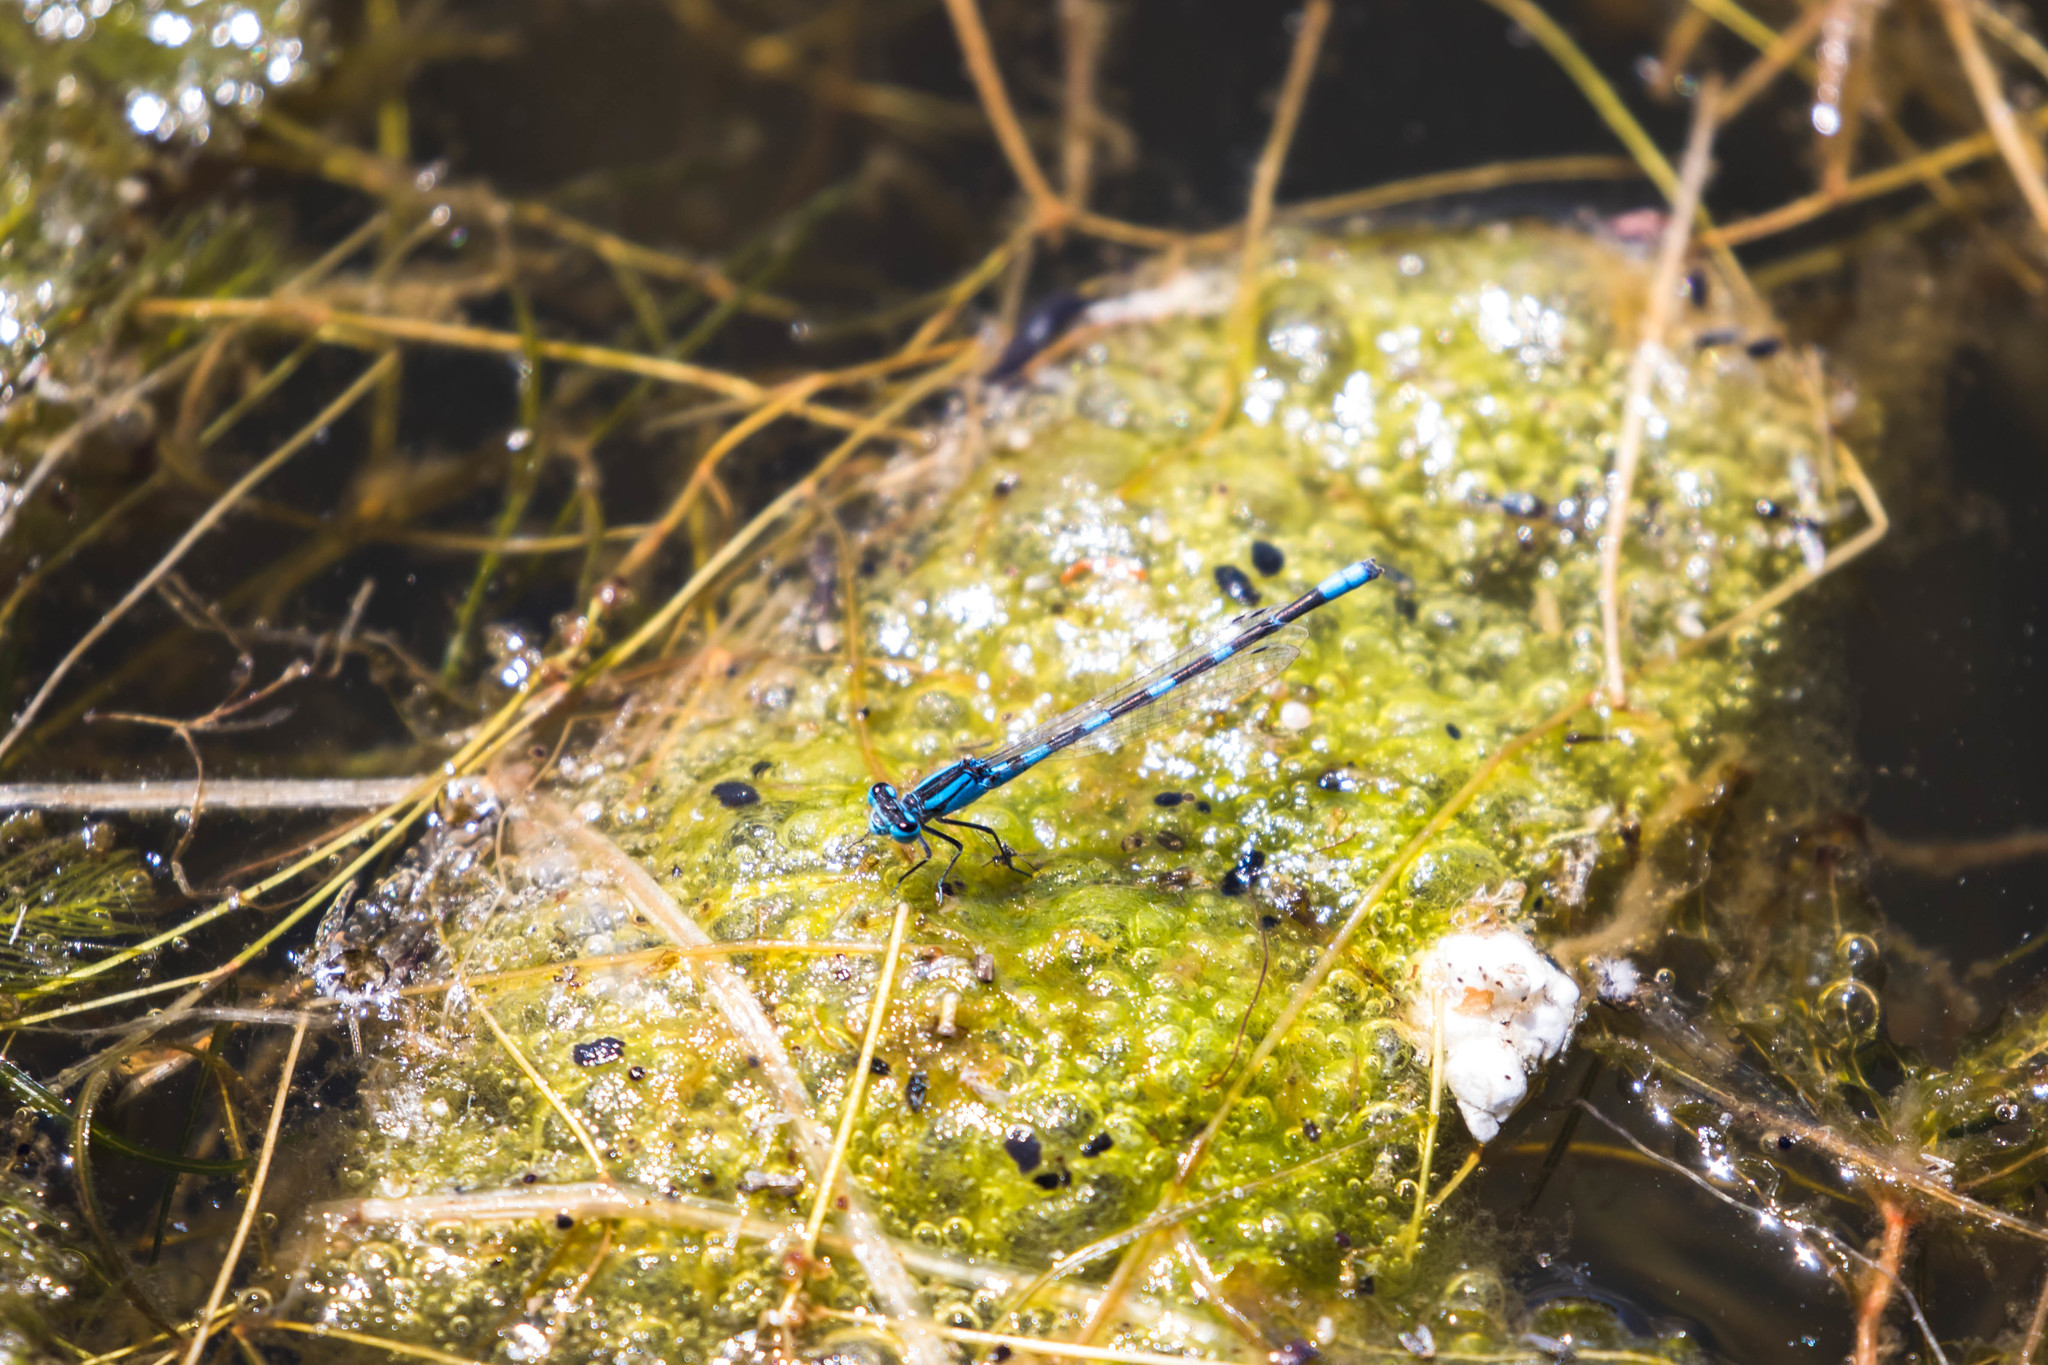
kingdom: Animalia
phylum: Arthropoda
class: Insecta
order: Odonata
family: Coenagrionidae
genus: Enallagma
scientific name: Enallagma carunculatum
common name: Tule bluet
